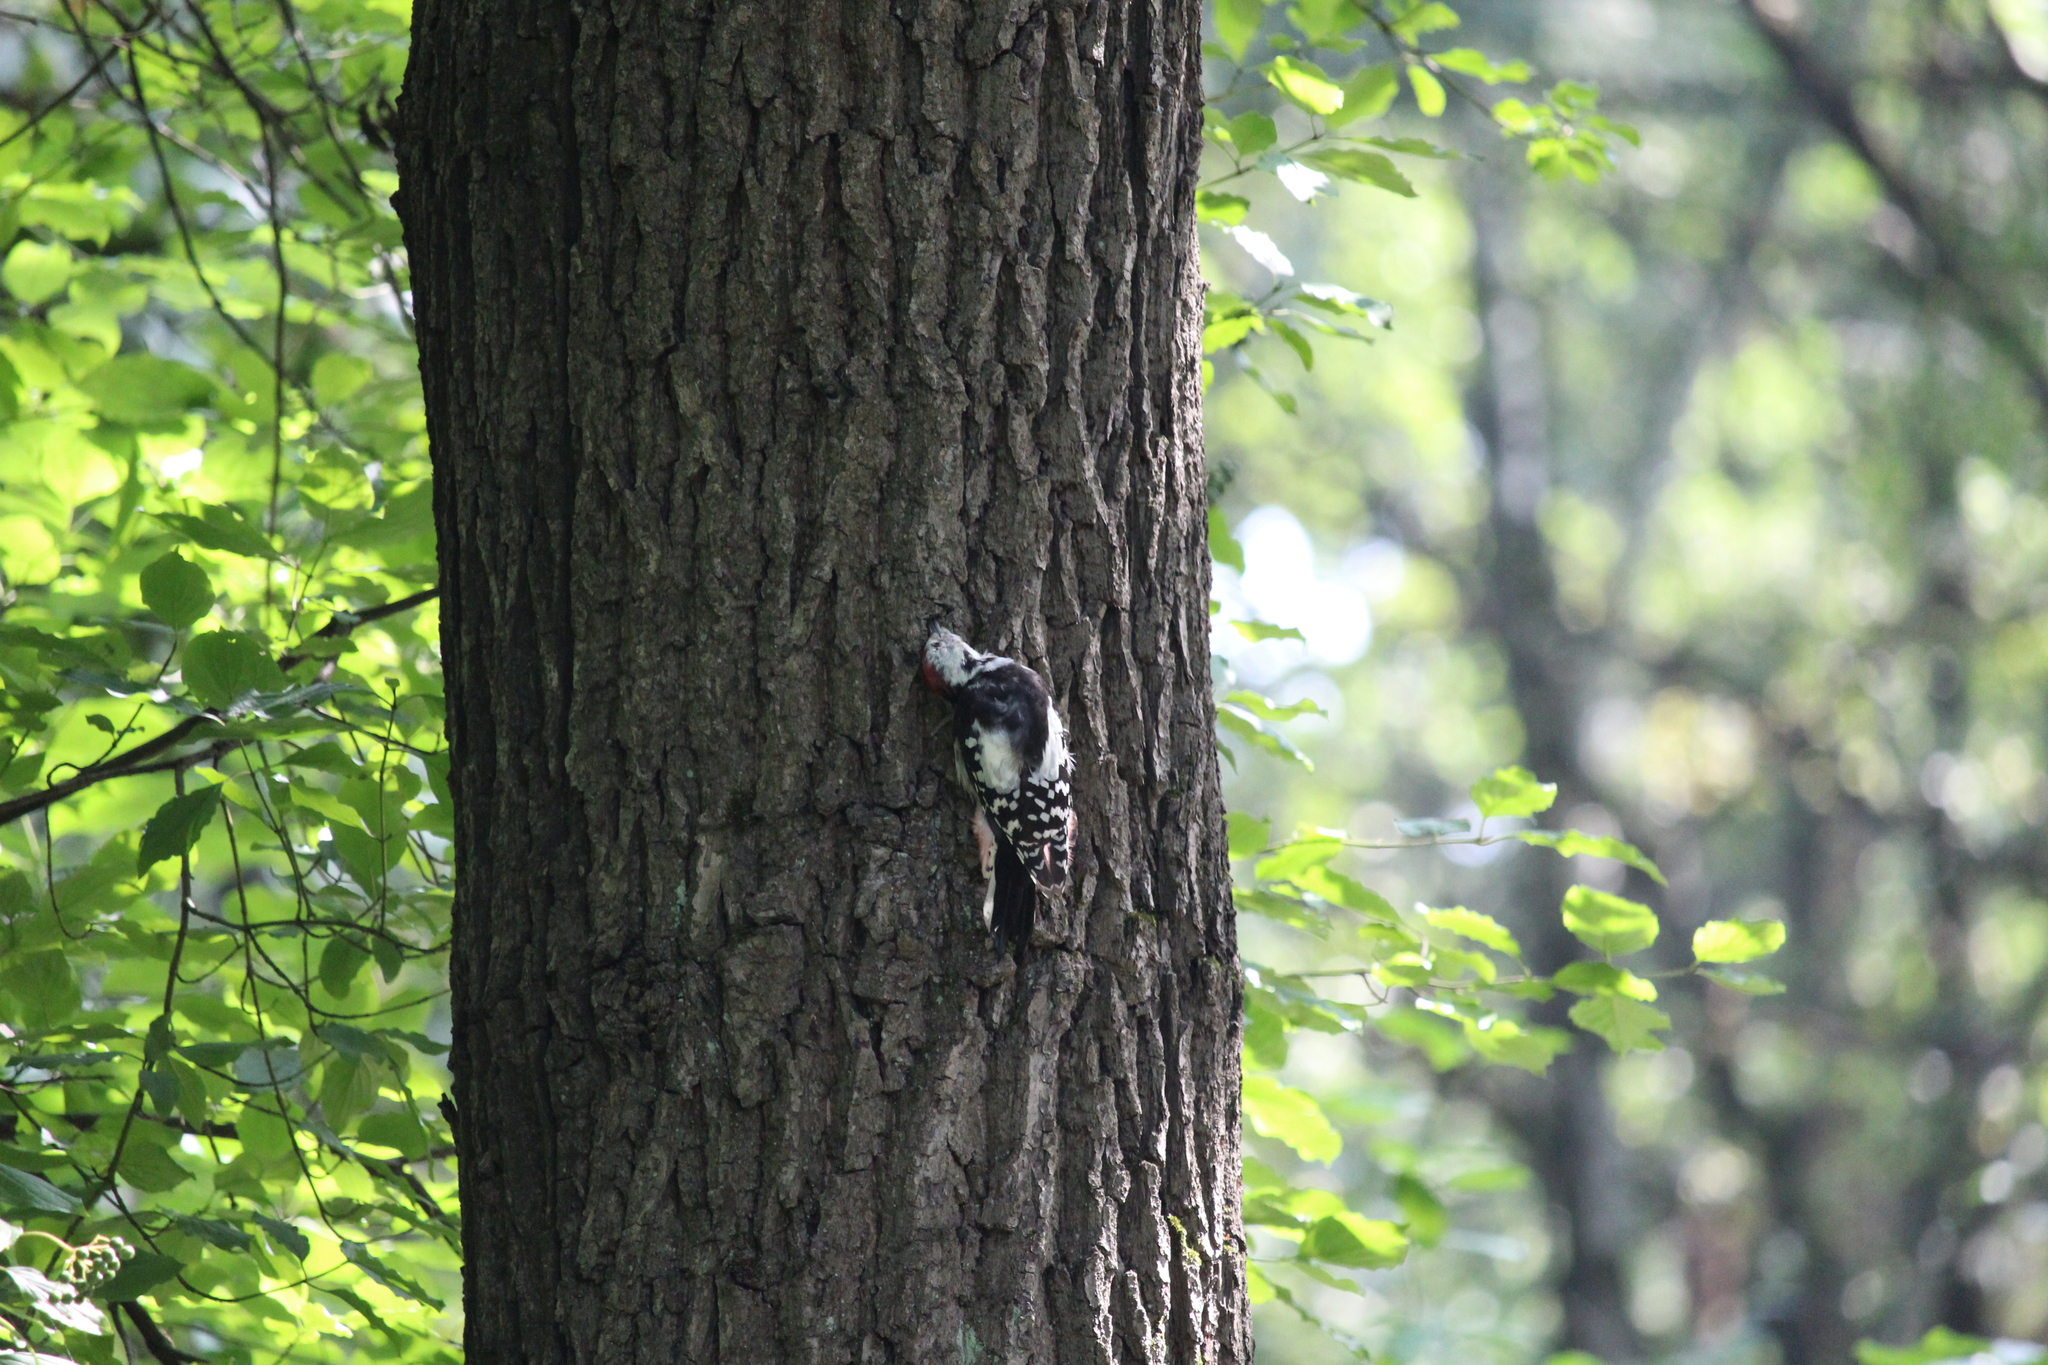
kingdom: Animalia
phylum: Chordata
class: Aves
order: Piciformes
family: Picidae
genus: Dendrocoptes
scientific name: Dendrocoptes medius
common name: Middle spotted woodpecker
